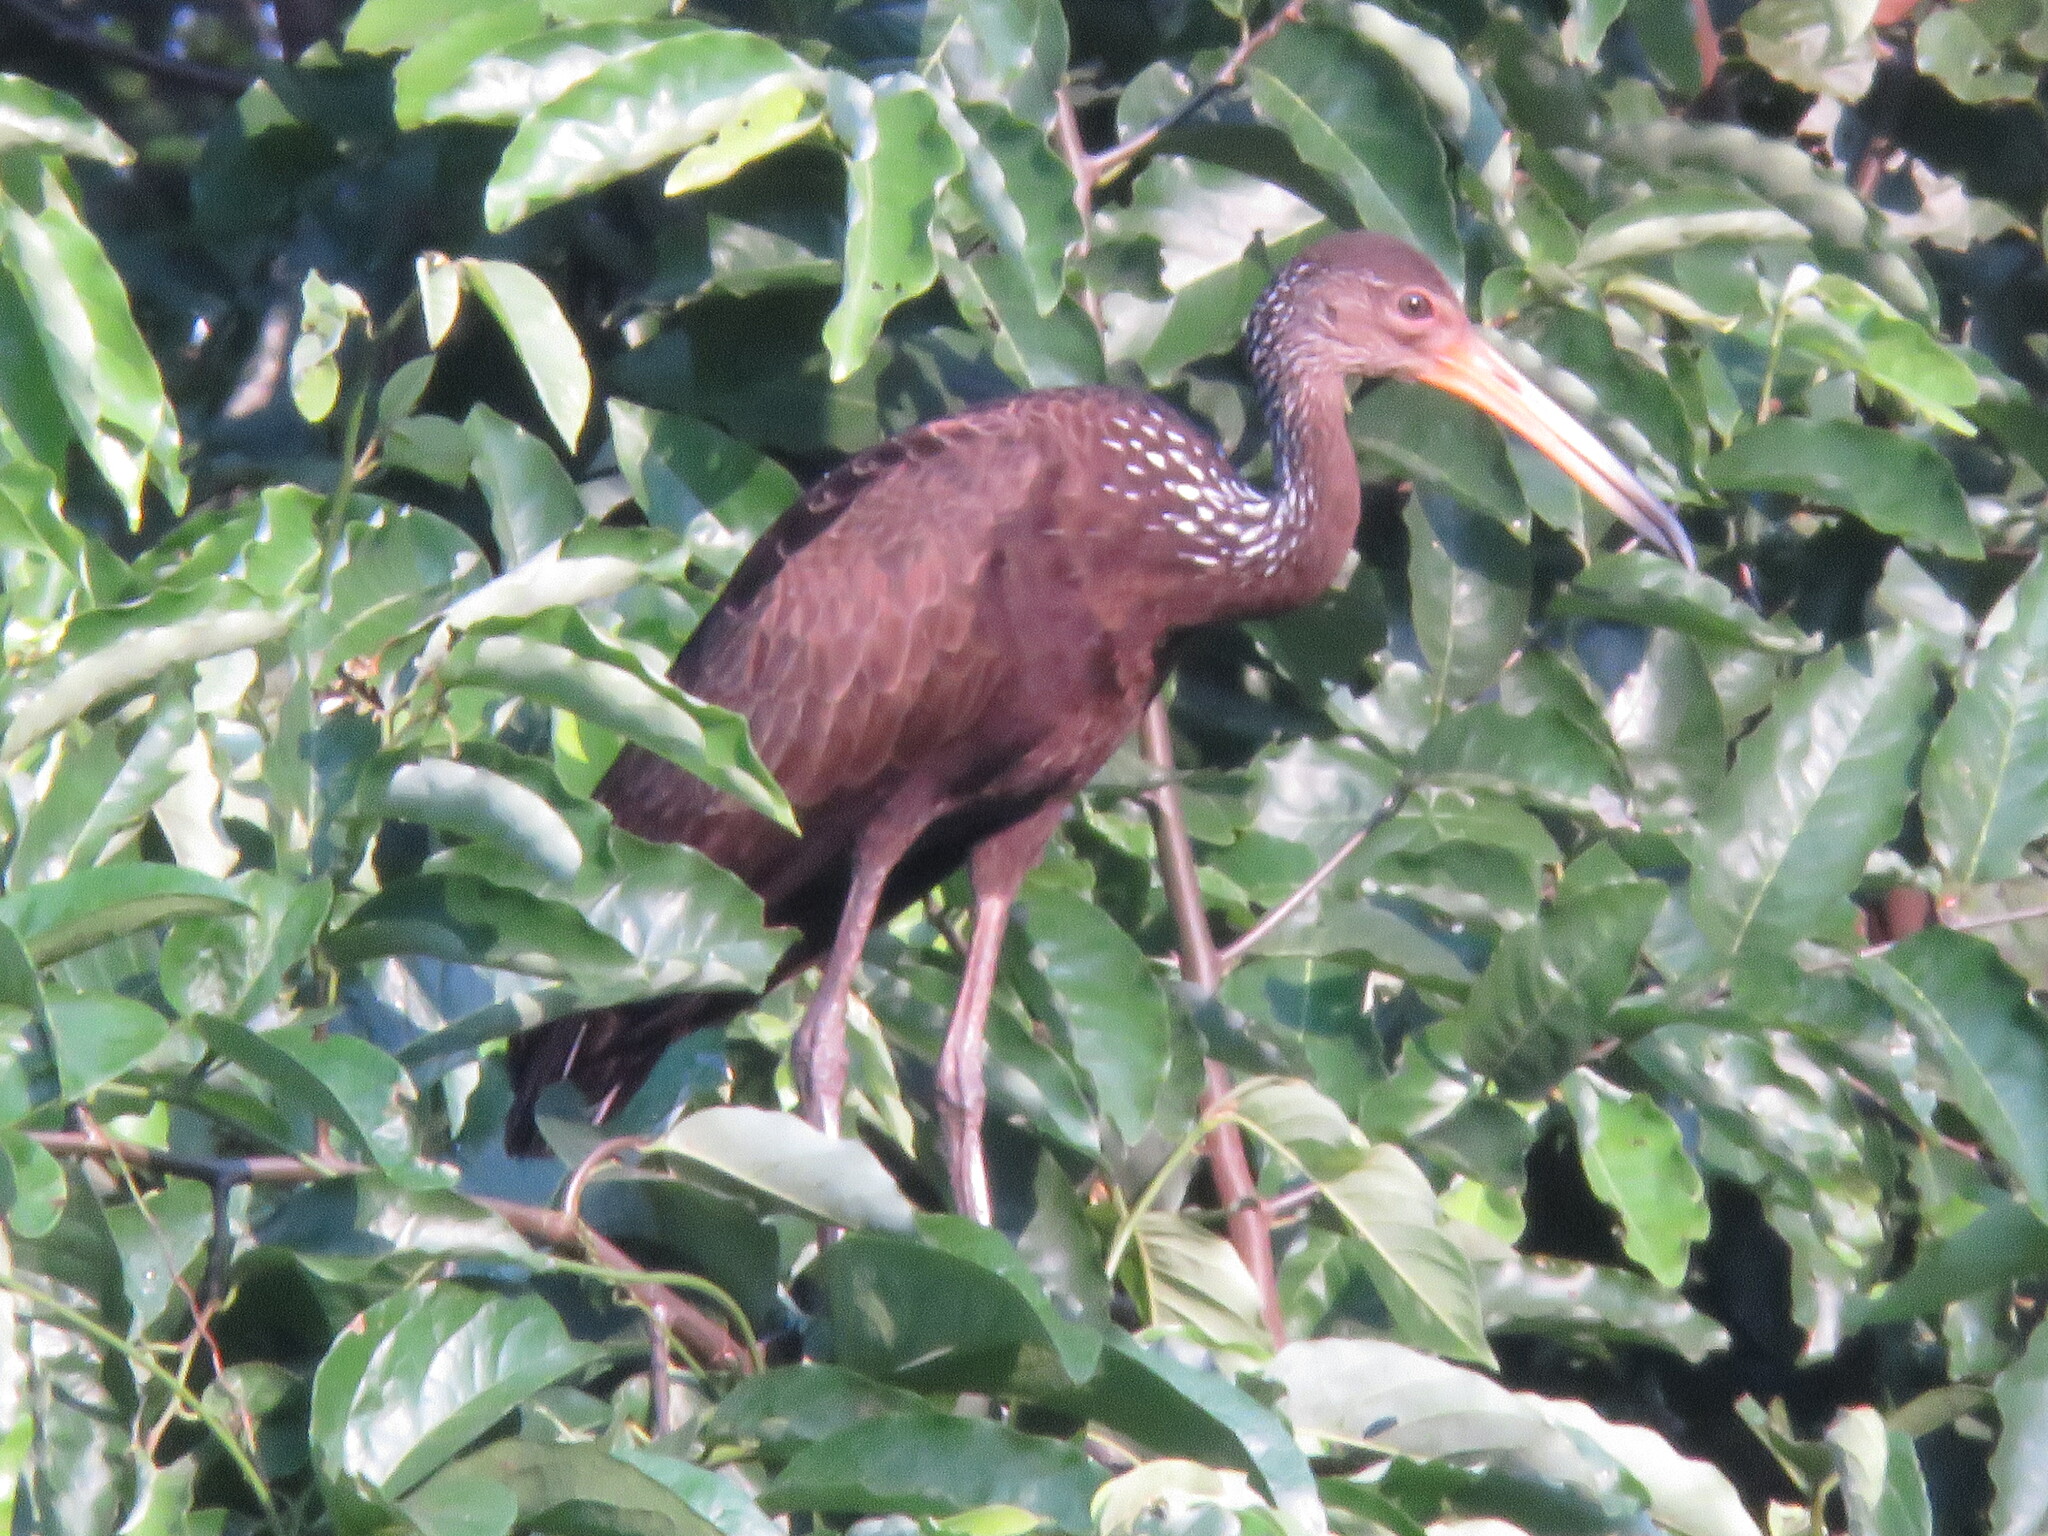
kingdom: Animalia
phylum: Chordata
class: Aves
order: Gruiformes
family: Aramidae
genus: Aramus
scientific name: Aramus guarauna
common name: Limpkin
